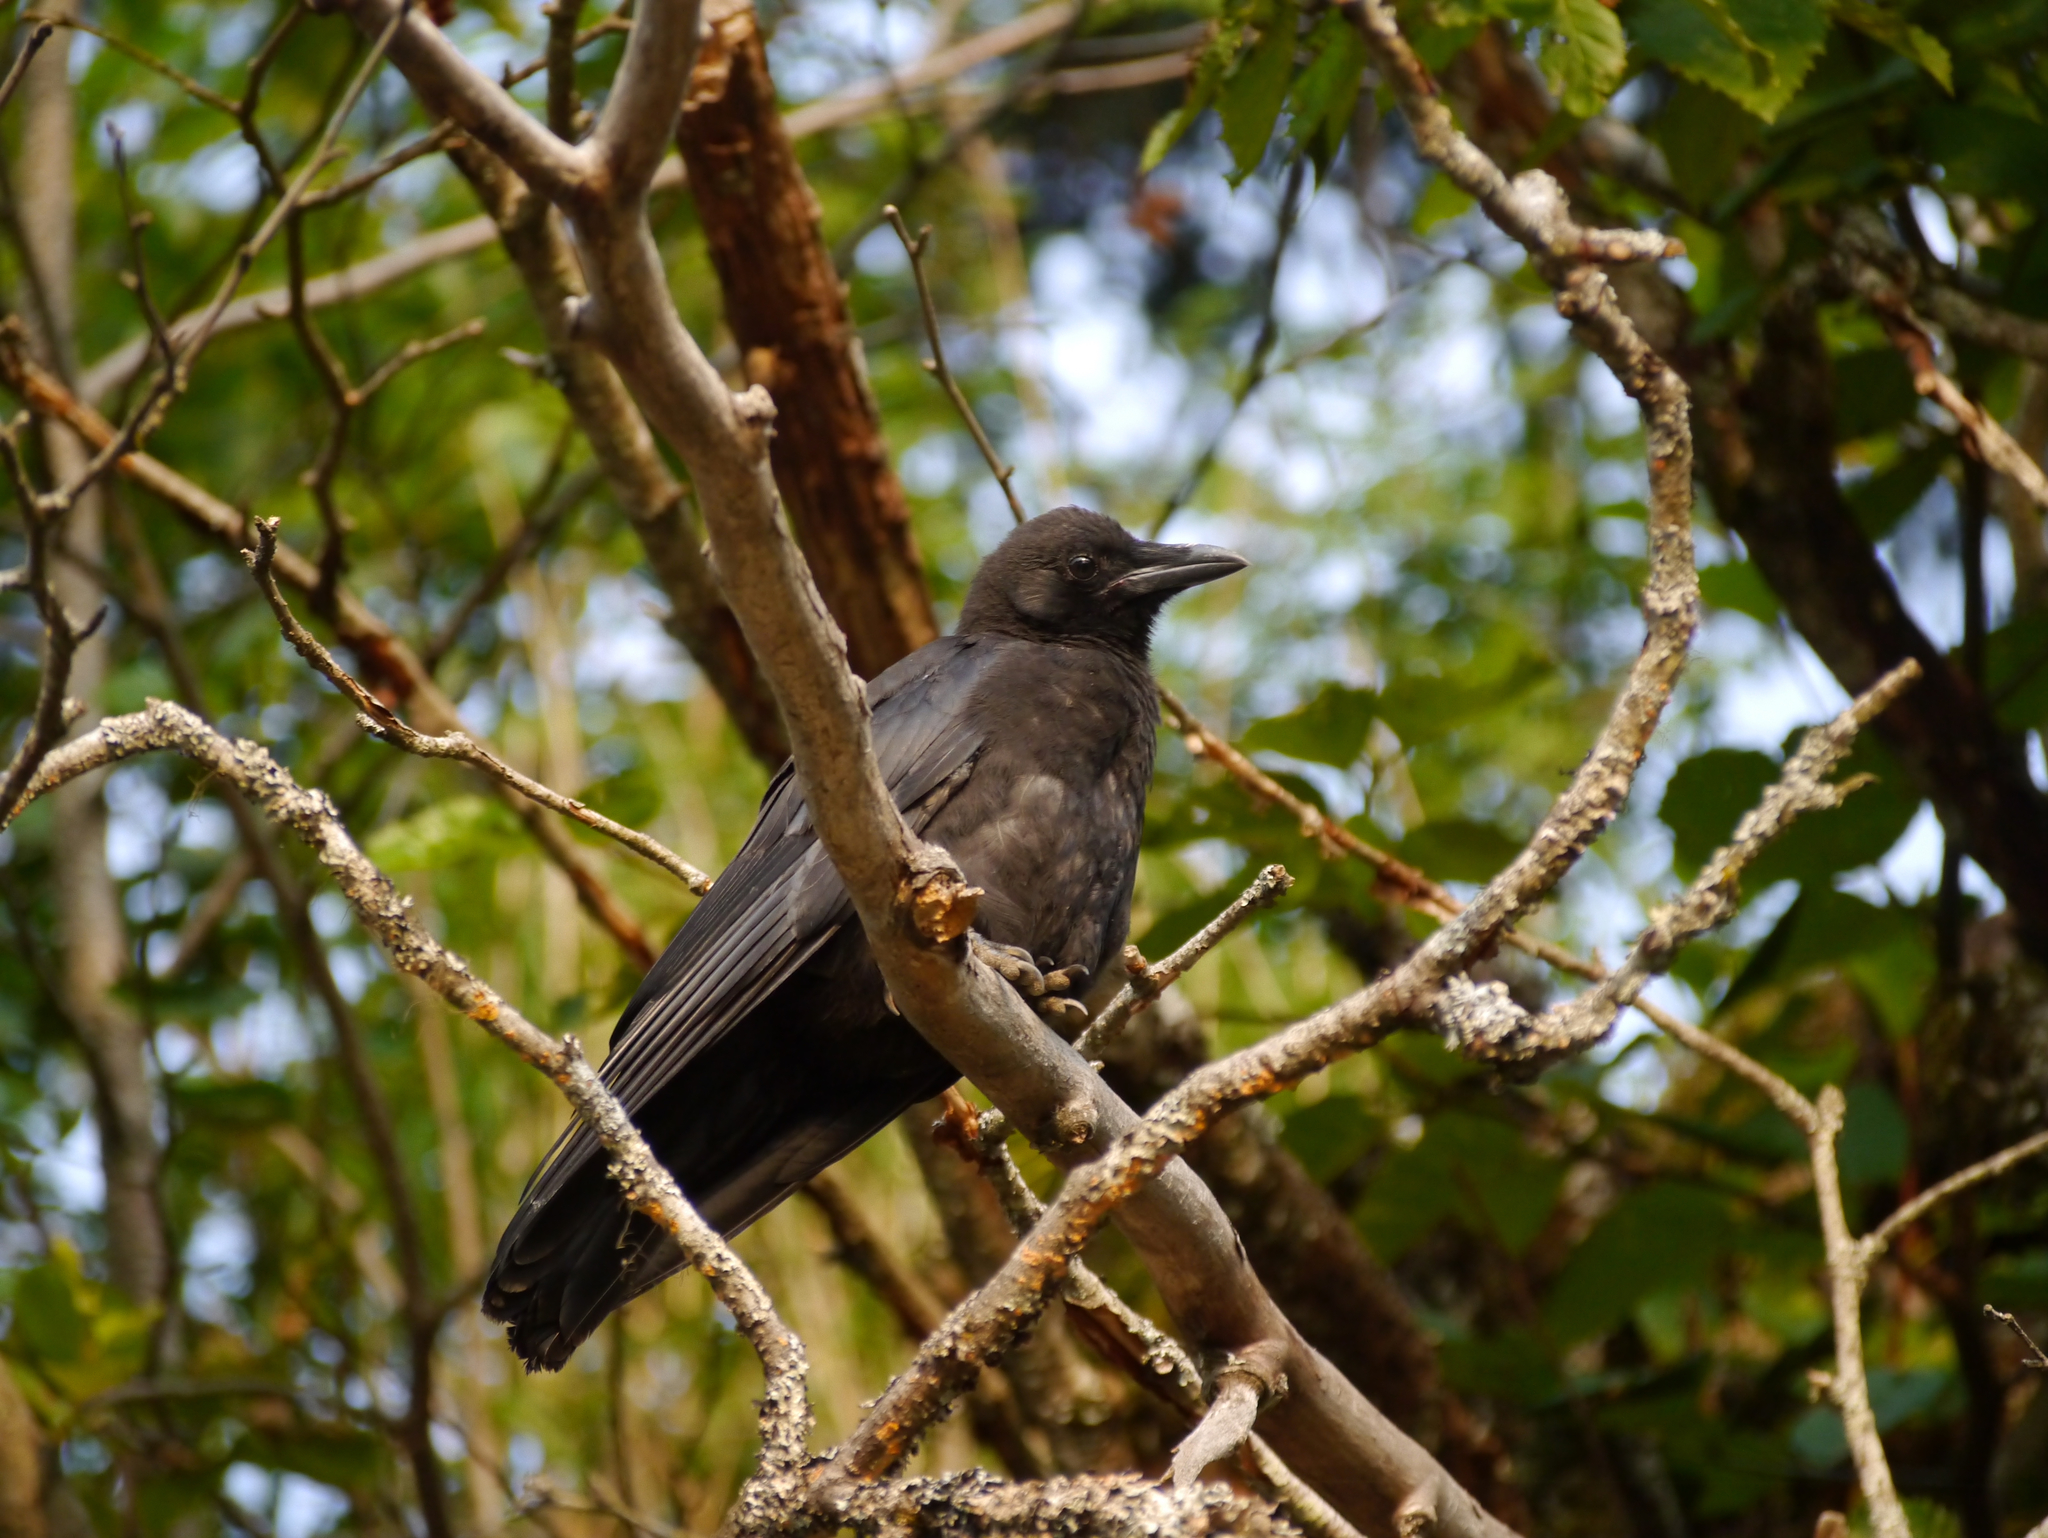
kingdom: Animalia
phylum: Chordata
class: Aves
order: Passeriformes
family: Corvidae
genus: Corvus
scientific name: Corvus brachyrhynchos
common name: American crow
